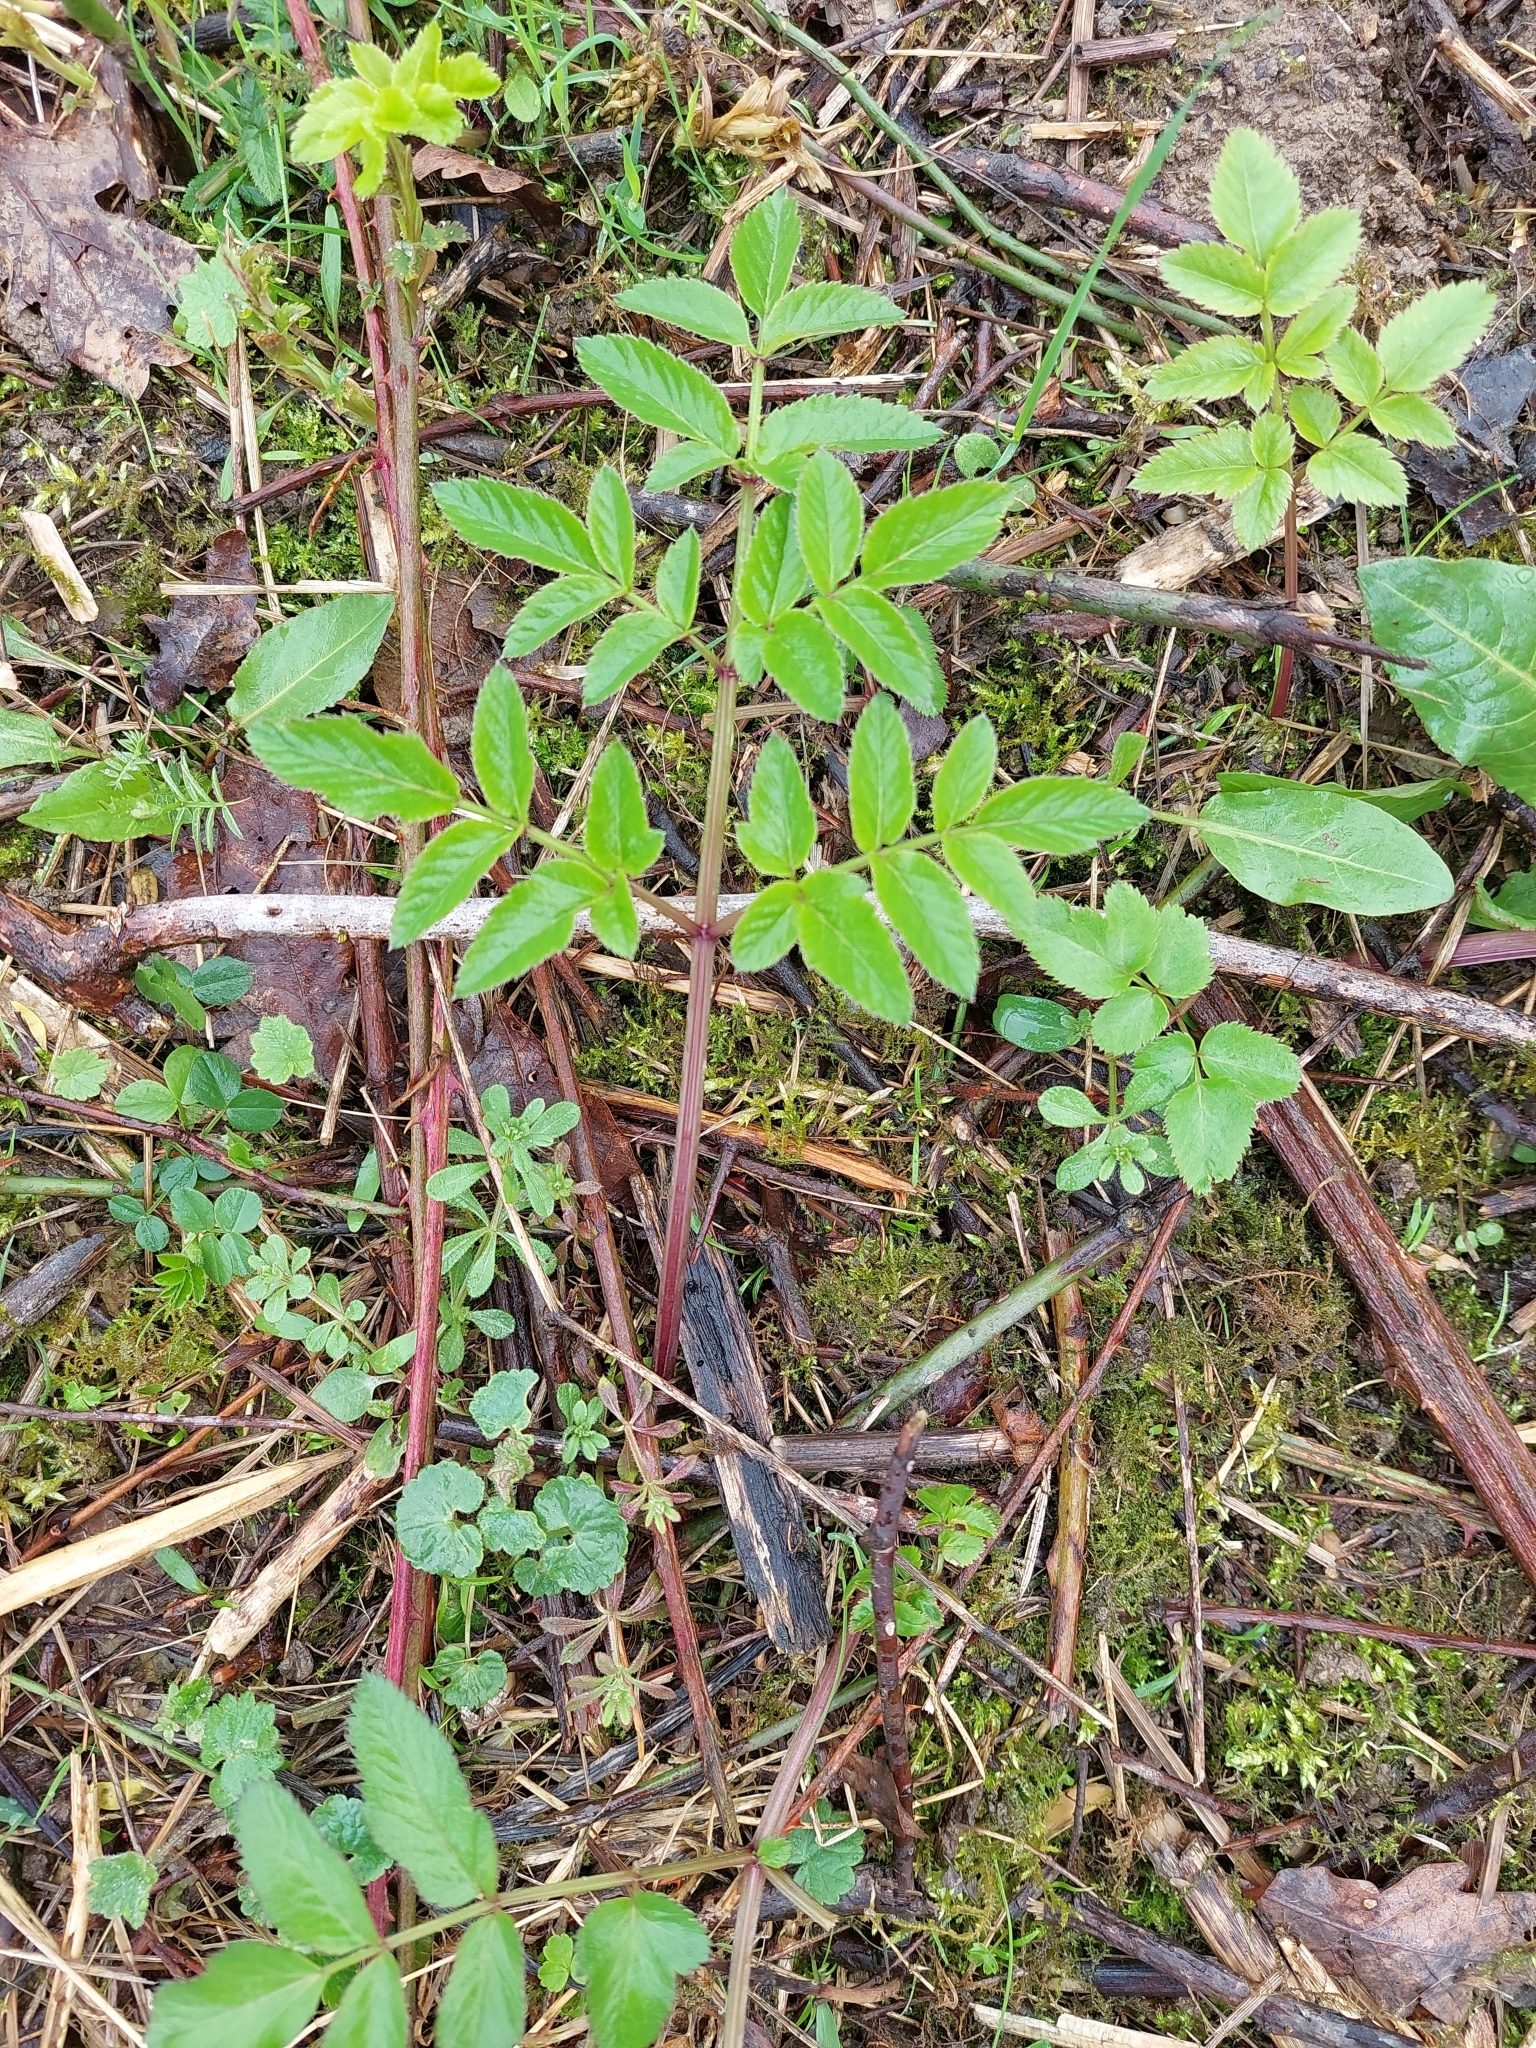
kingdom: Plantae
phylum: Tracheophyta
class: Magnoliopsida
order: Apiales
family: Apiaceae
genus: Angelica
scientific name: Angelica sylvestris
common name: Wild angelica
